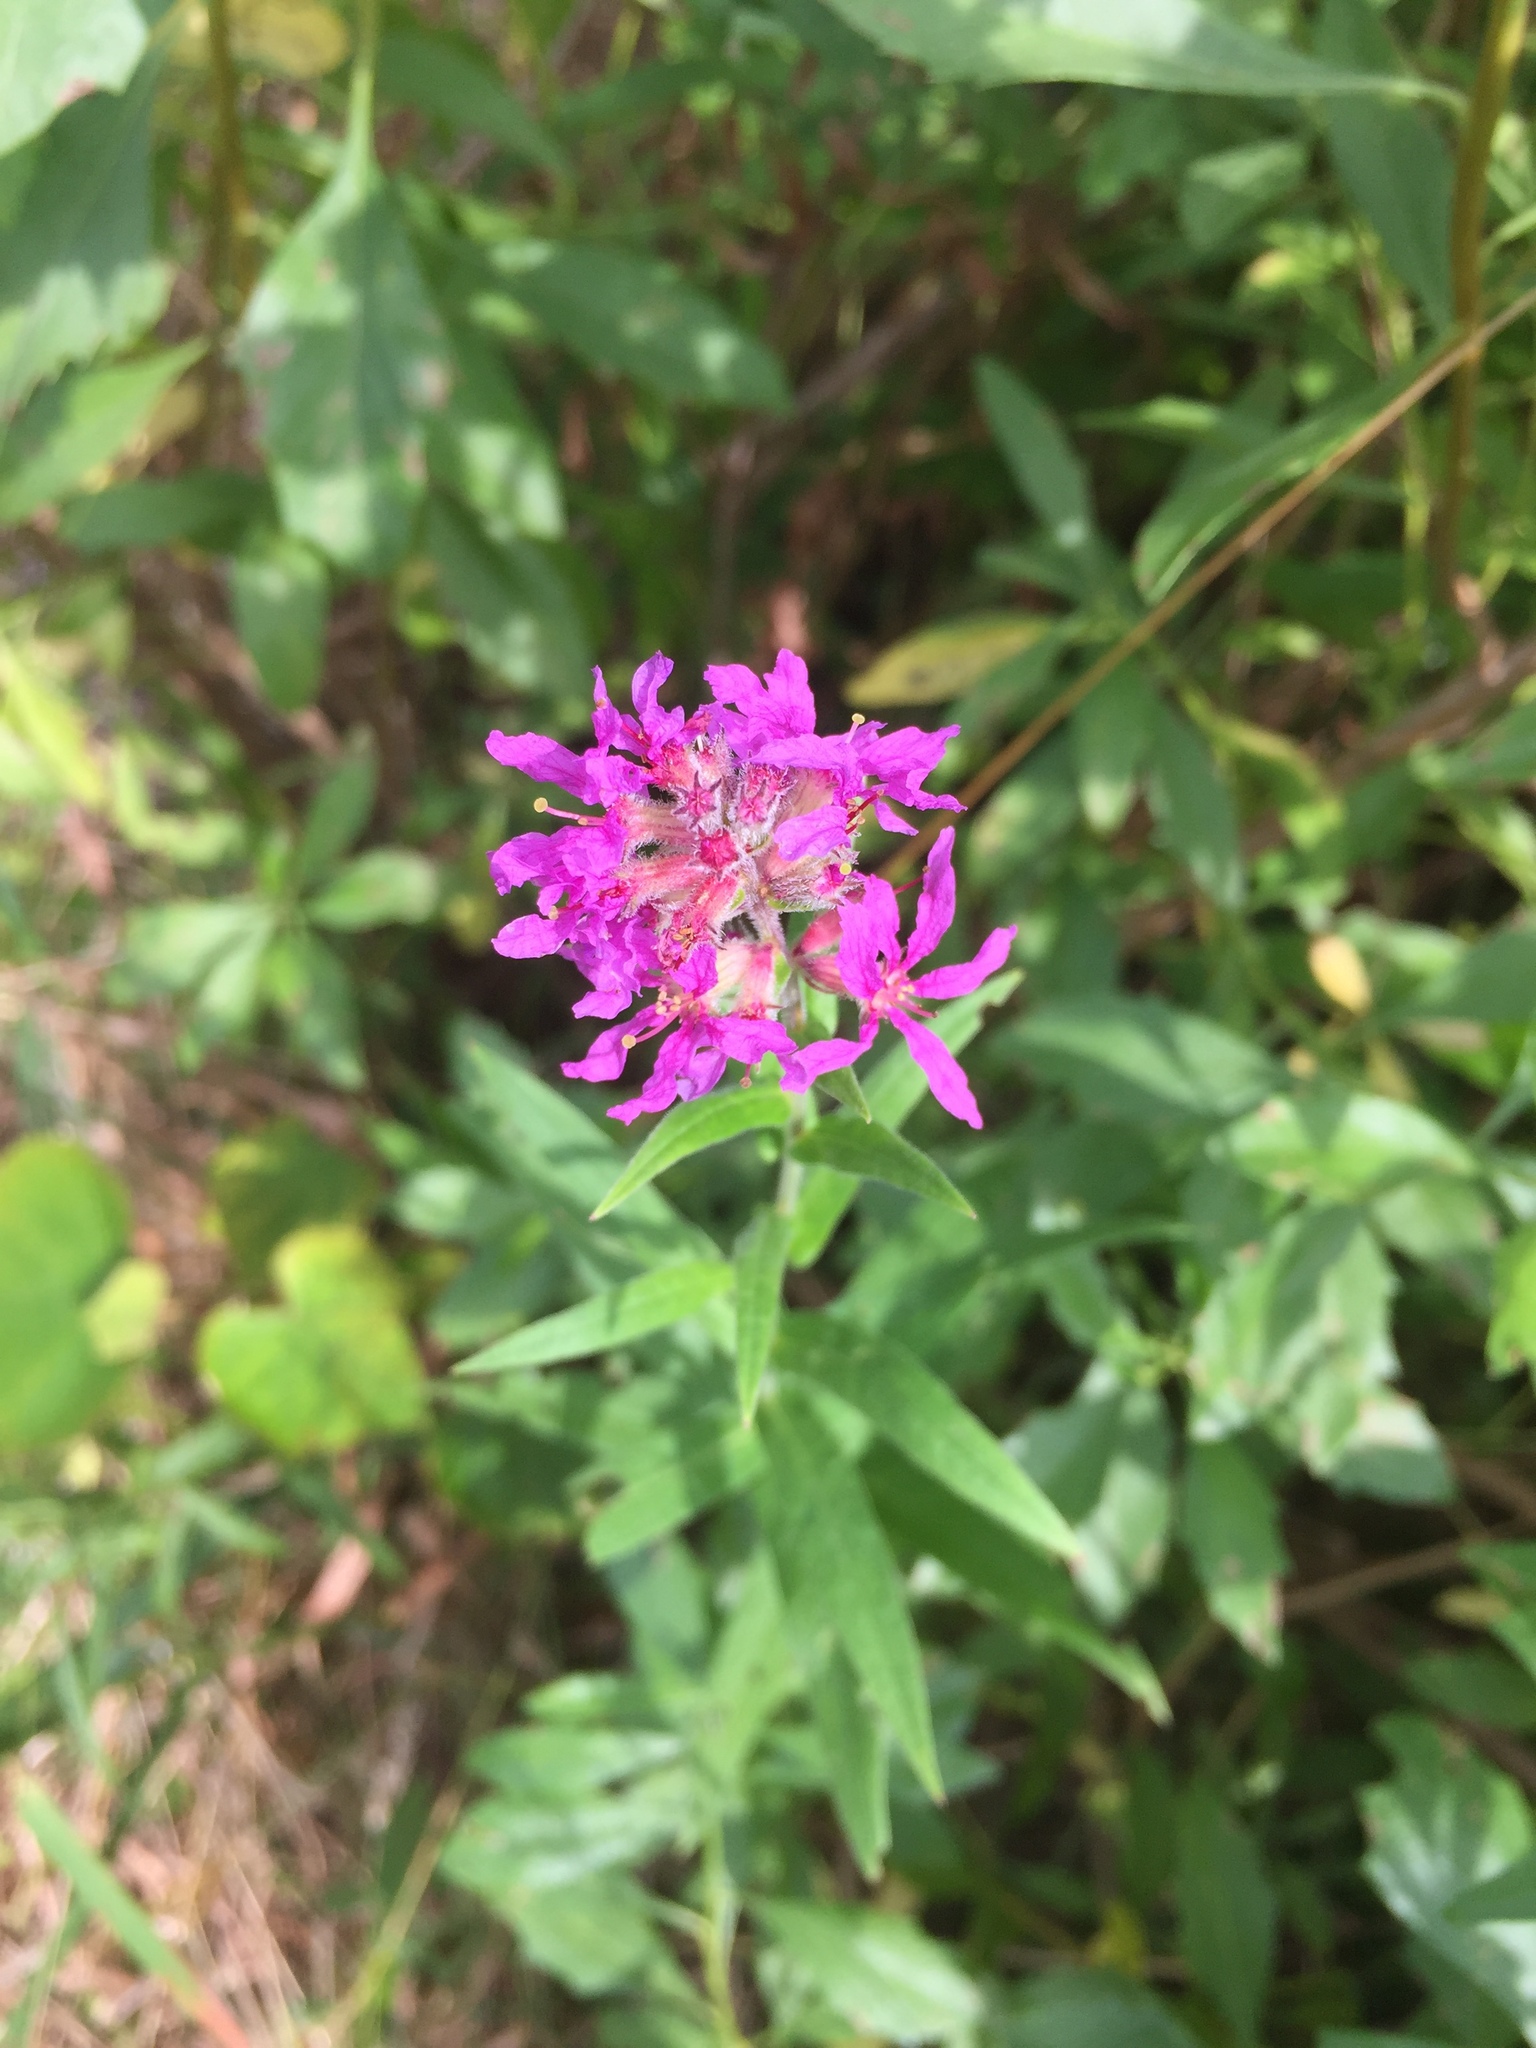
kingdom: Plantae
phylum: Tracheophyta
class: Magnoliopsida
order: Myrtales
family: Lythraceae
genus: Lythrum
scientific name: Lythrum salicaria
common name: Purple loosestrife
